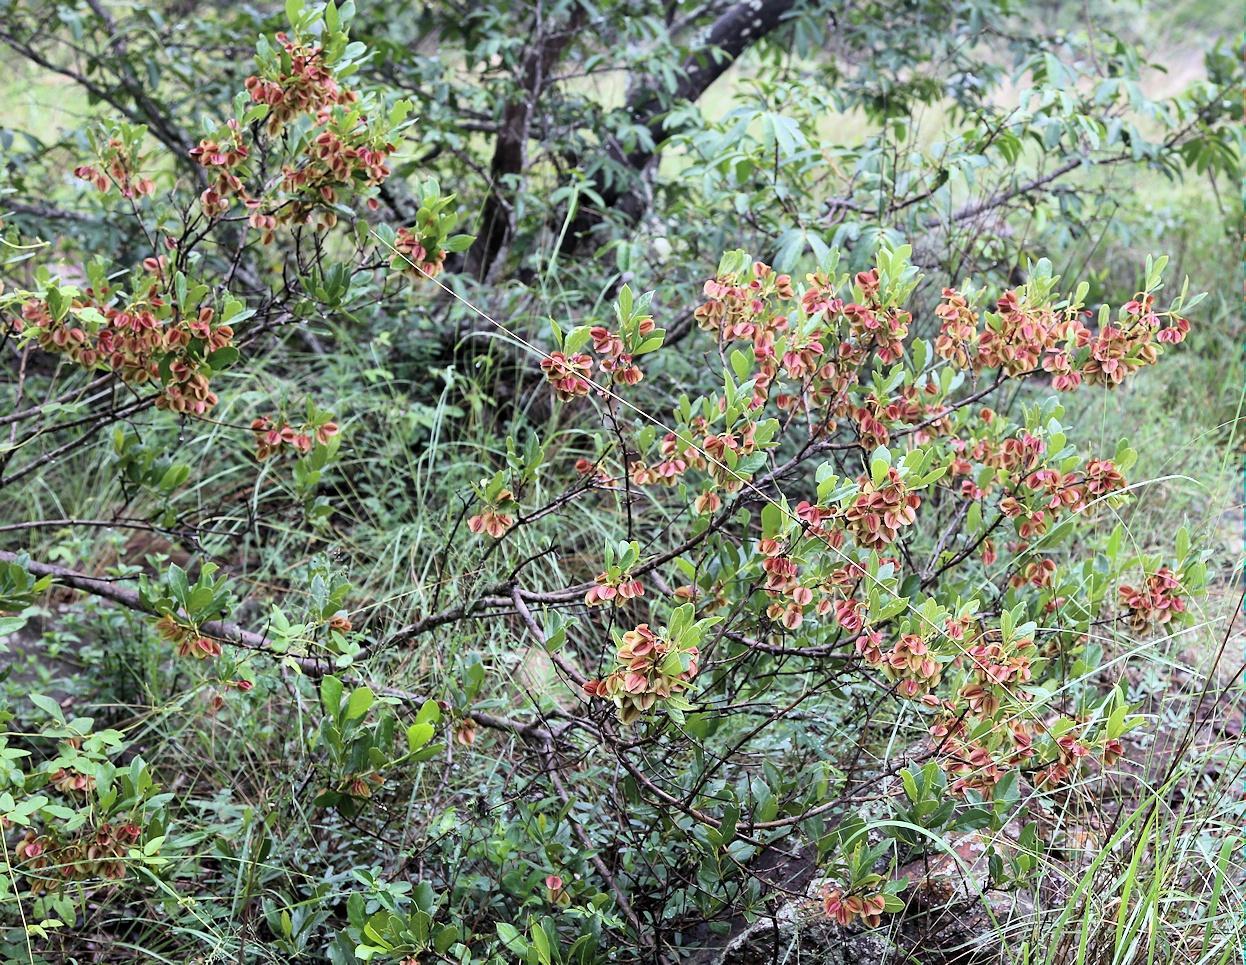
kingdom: Plantae
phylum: Tracheophyta
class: Magnoliopsida
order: Myrtales
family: Combretaceae
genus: Combretum
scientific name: Combretum vendae
